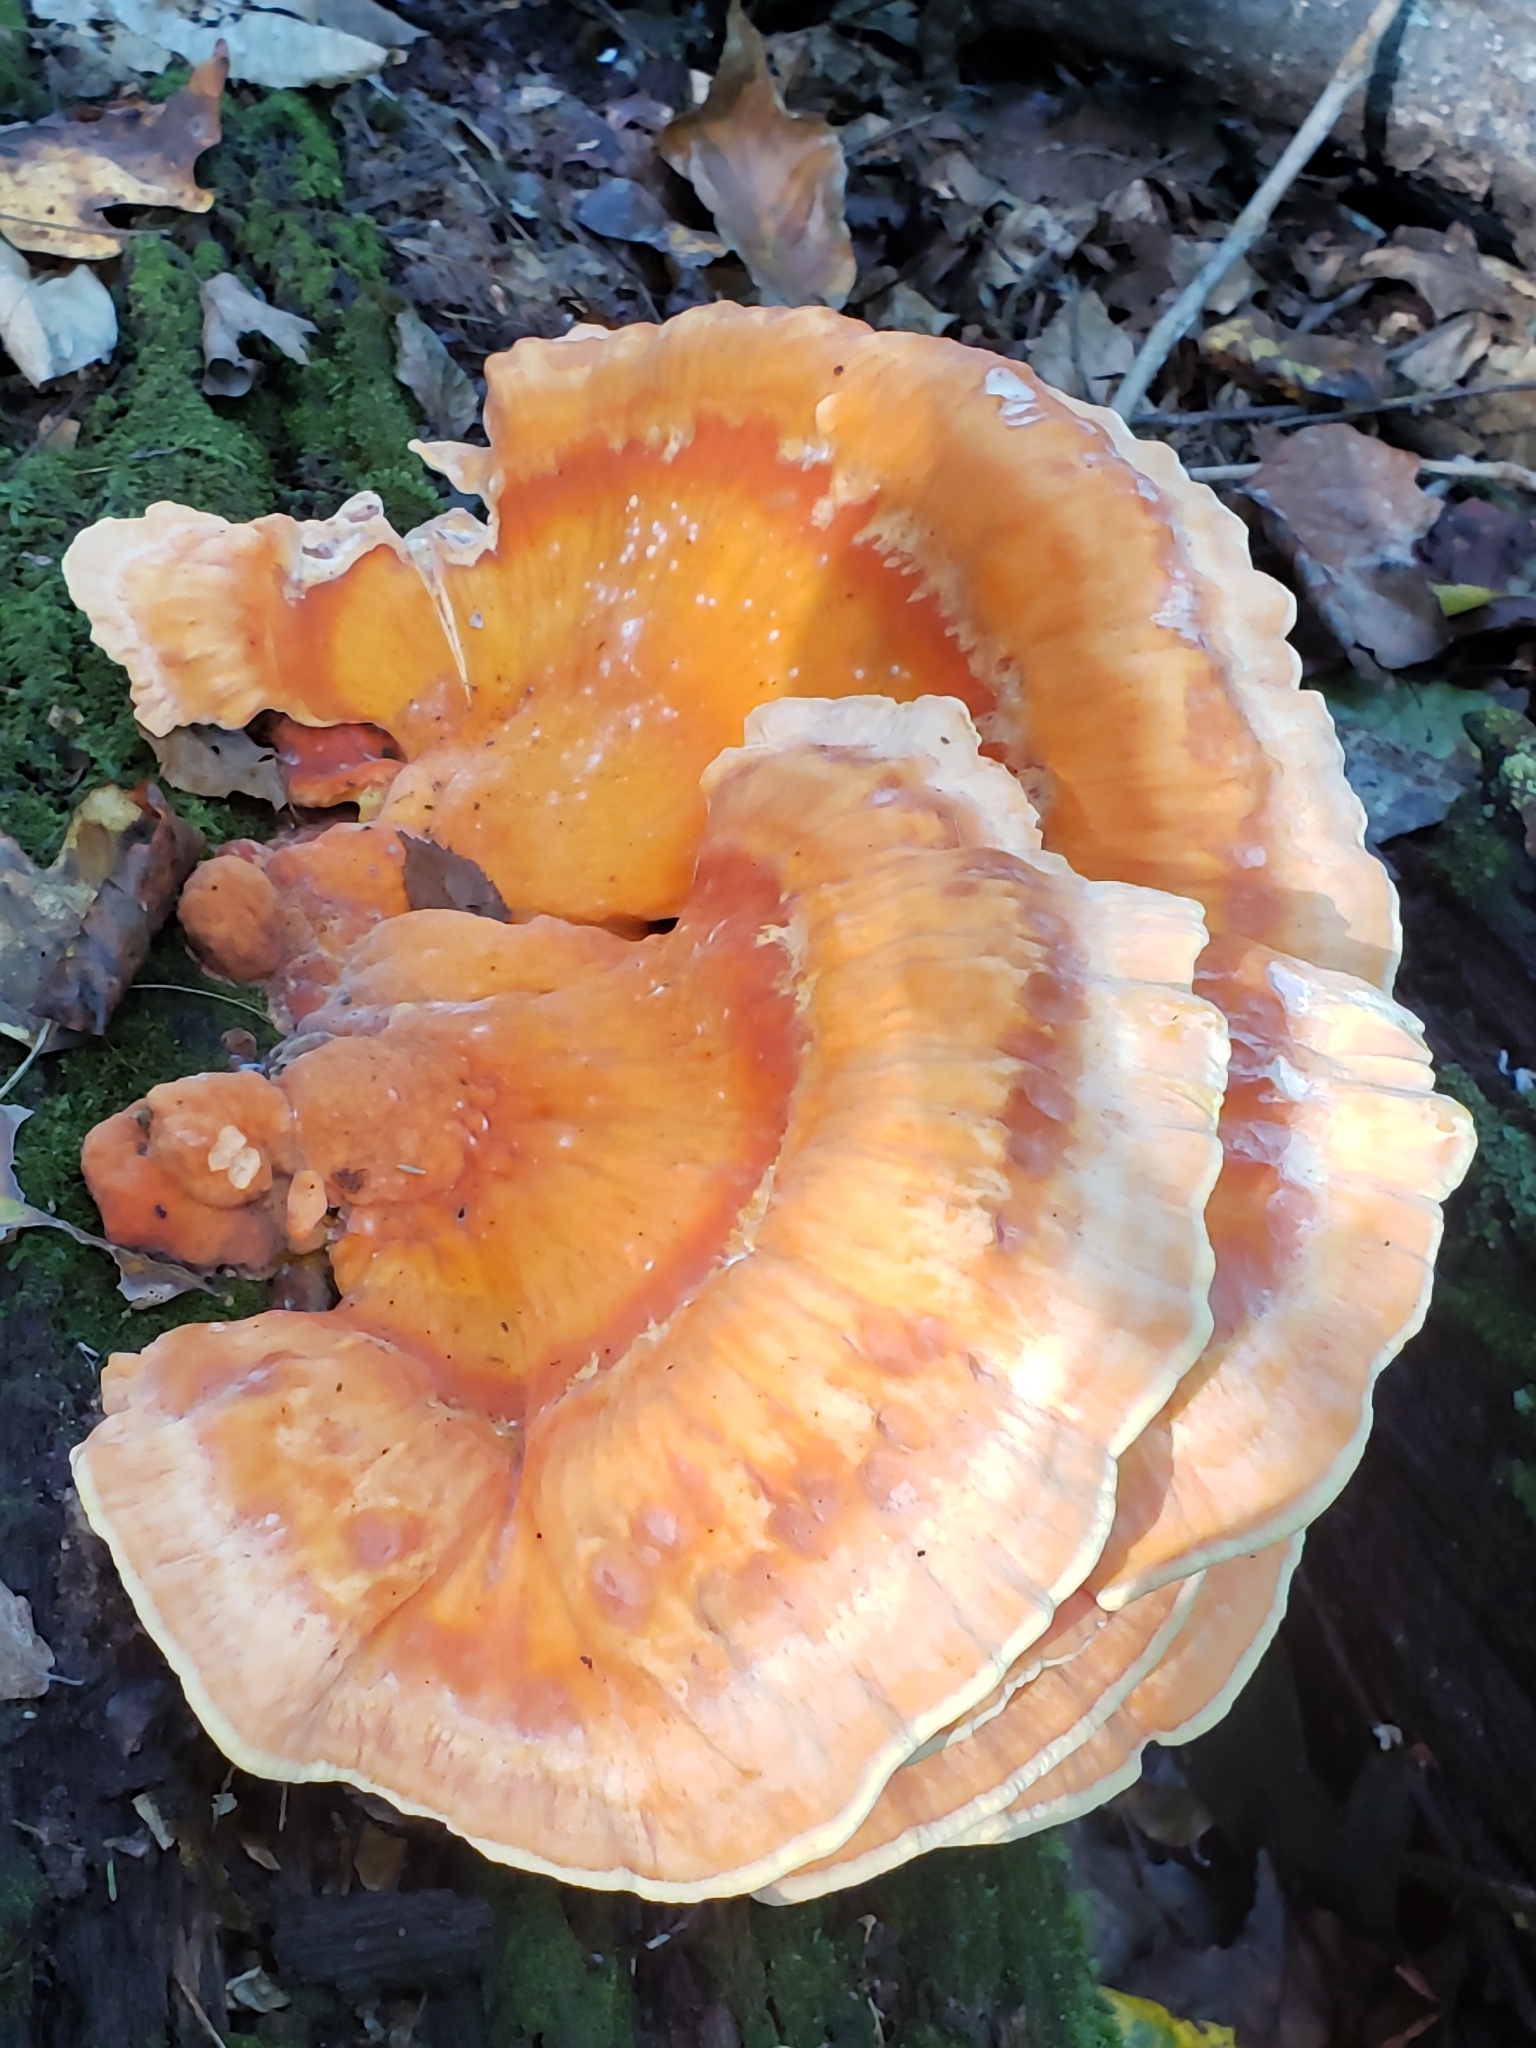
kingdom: Fungi
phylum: Basidiomycota
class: Agaricomycetes
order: Polyporales
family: Laetiporaceae
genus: Laetiporus
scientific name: Laetiporus sulphureus
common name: Chicken of the woods
